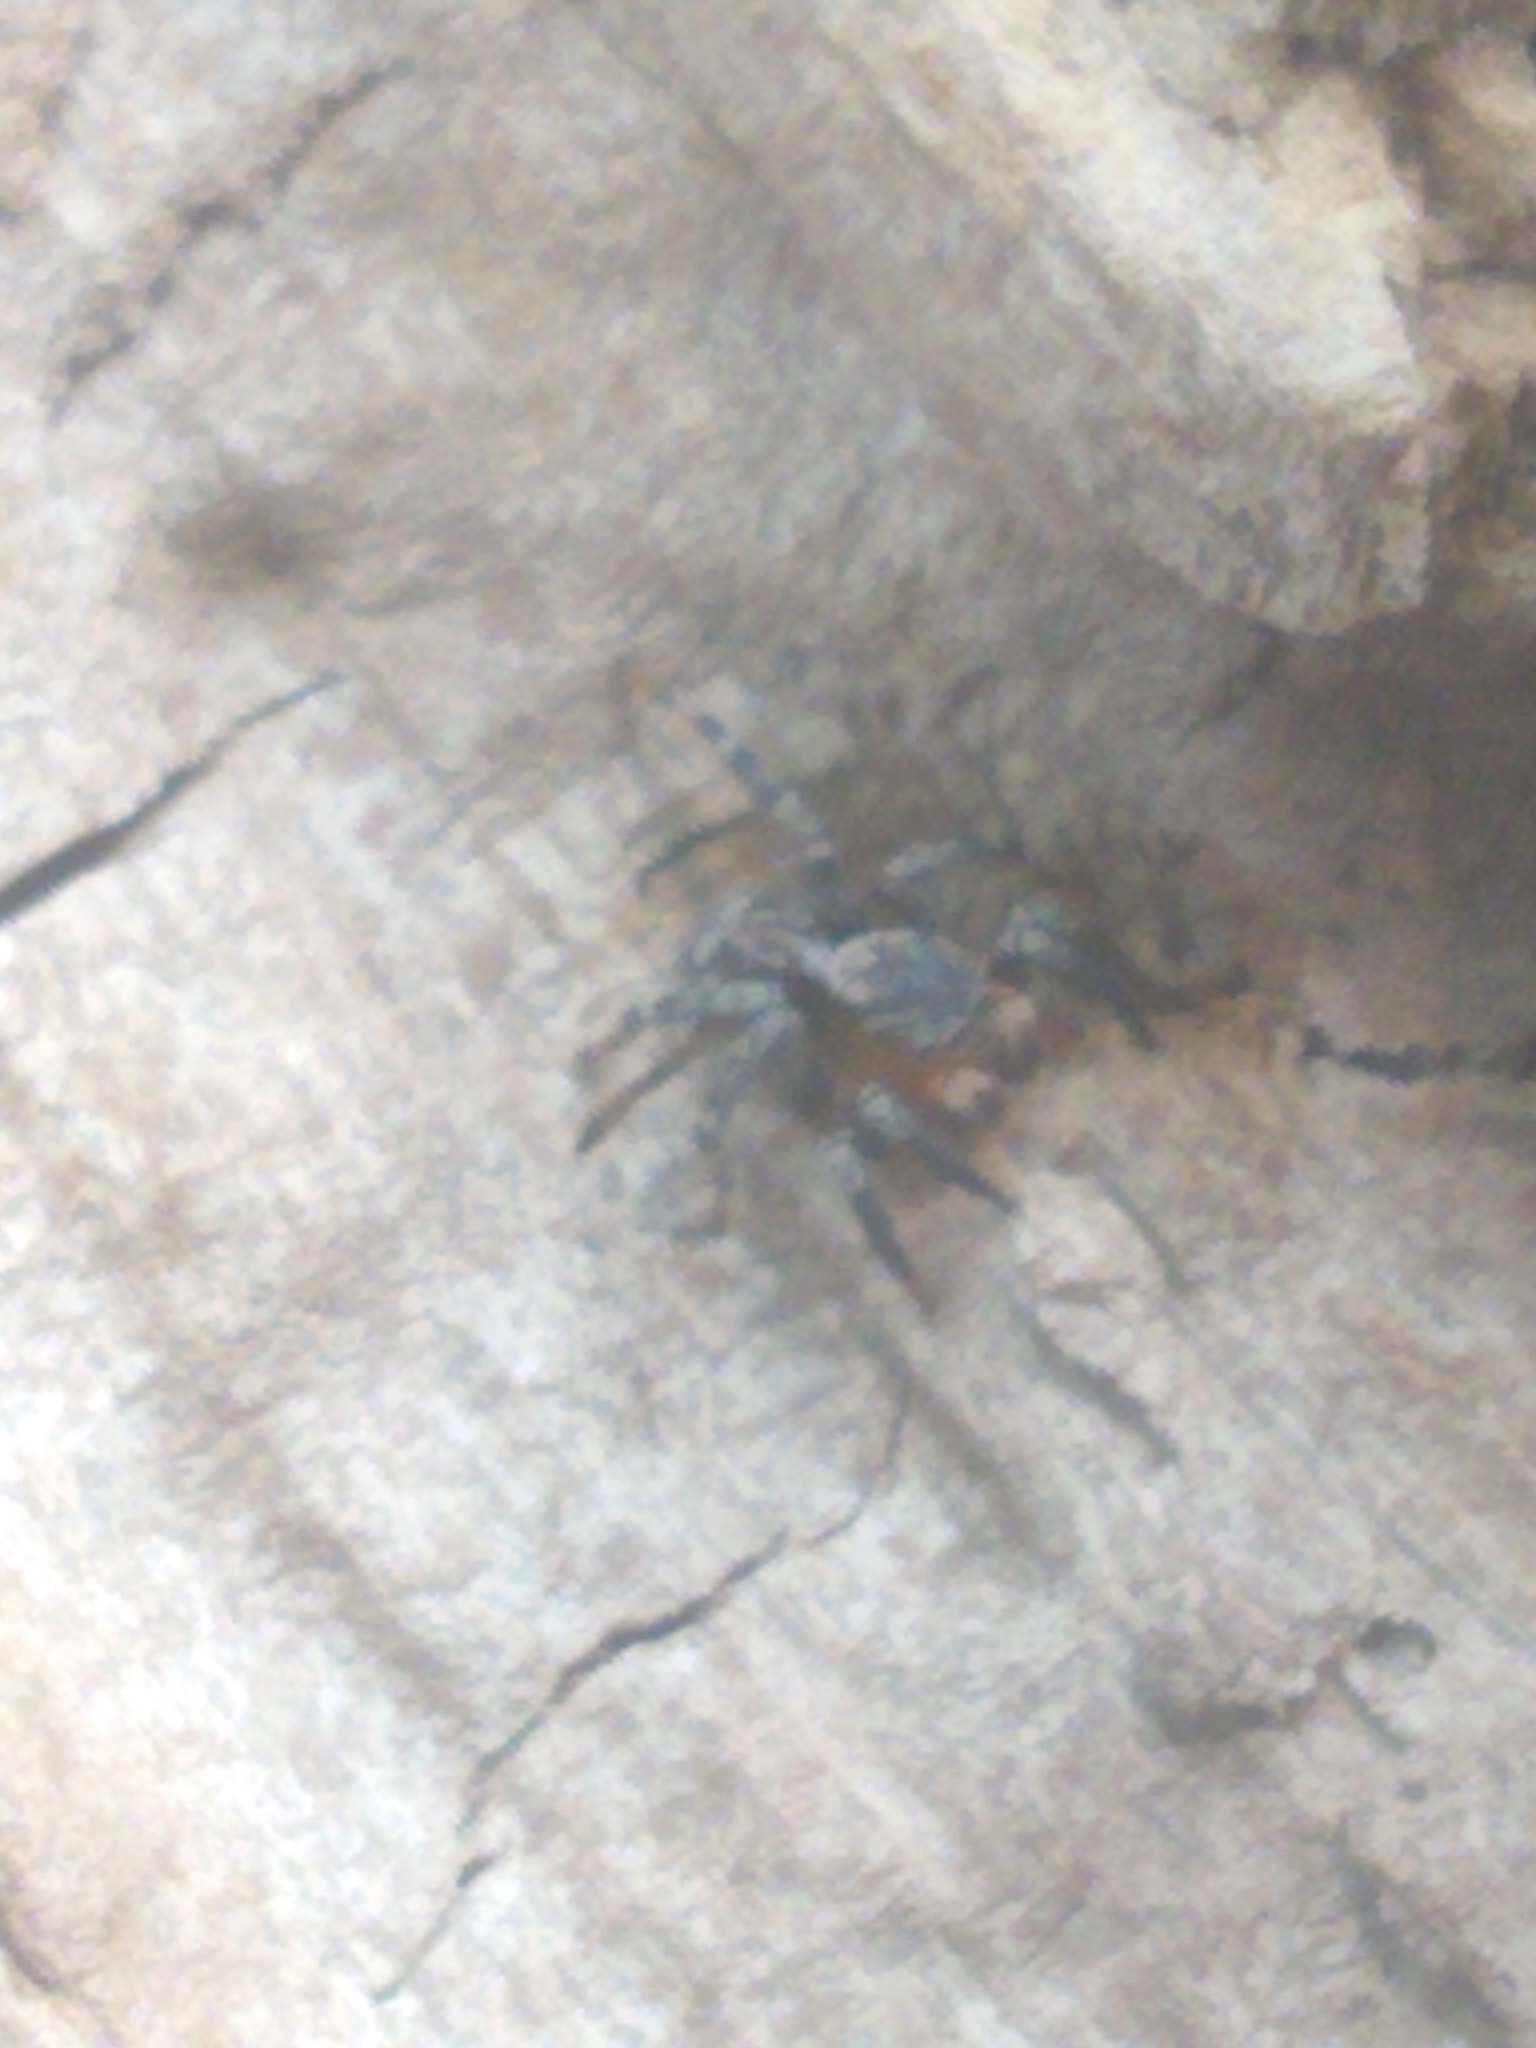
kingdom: Animalia
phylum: Arthropoda
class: Arachnida
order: Araneae
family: Salticidae
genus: Naphrys
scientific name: Naphrys pulex
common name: Flea jumping spider
